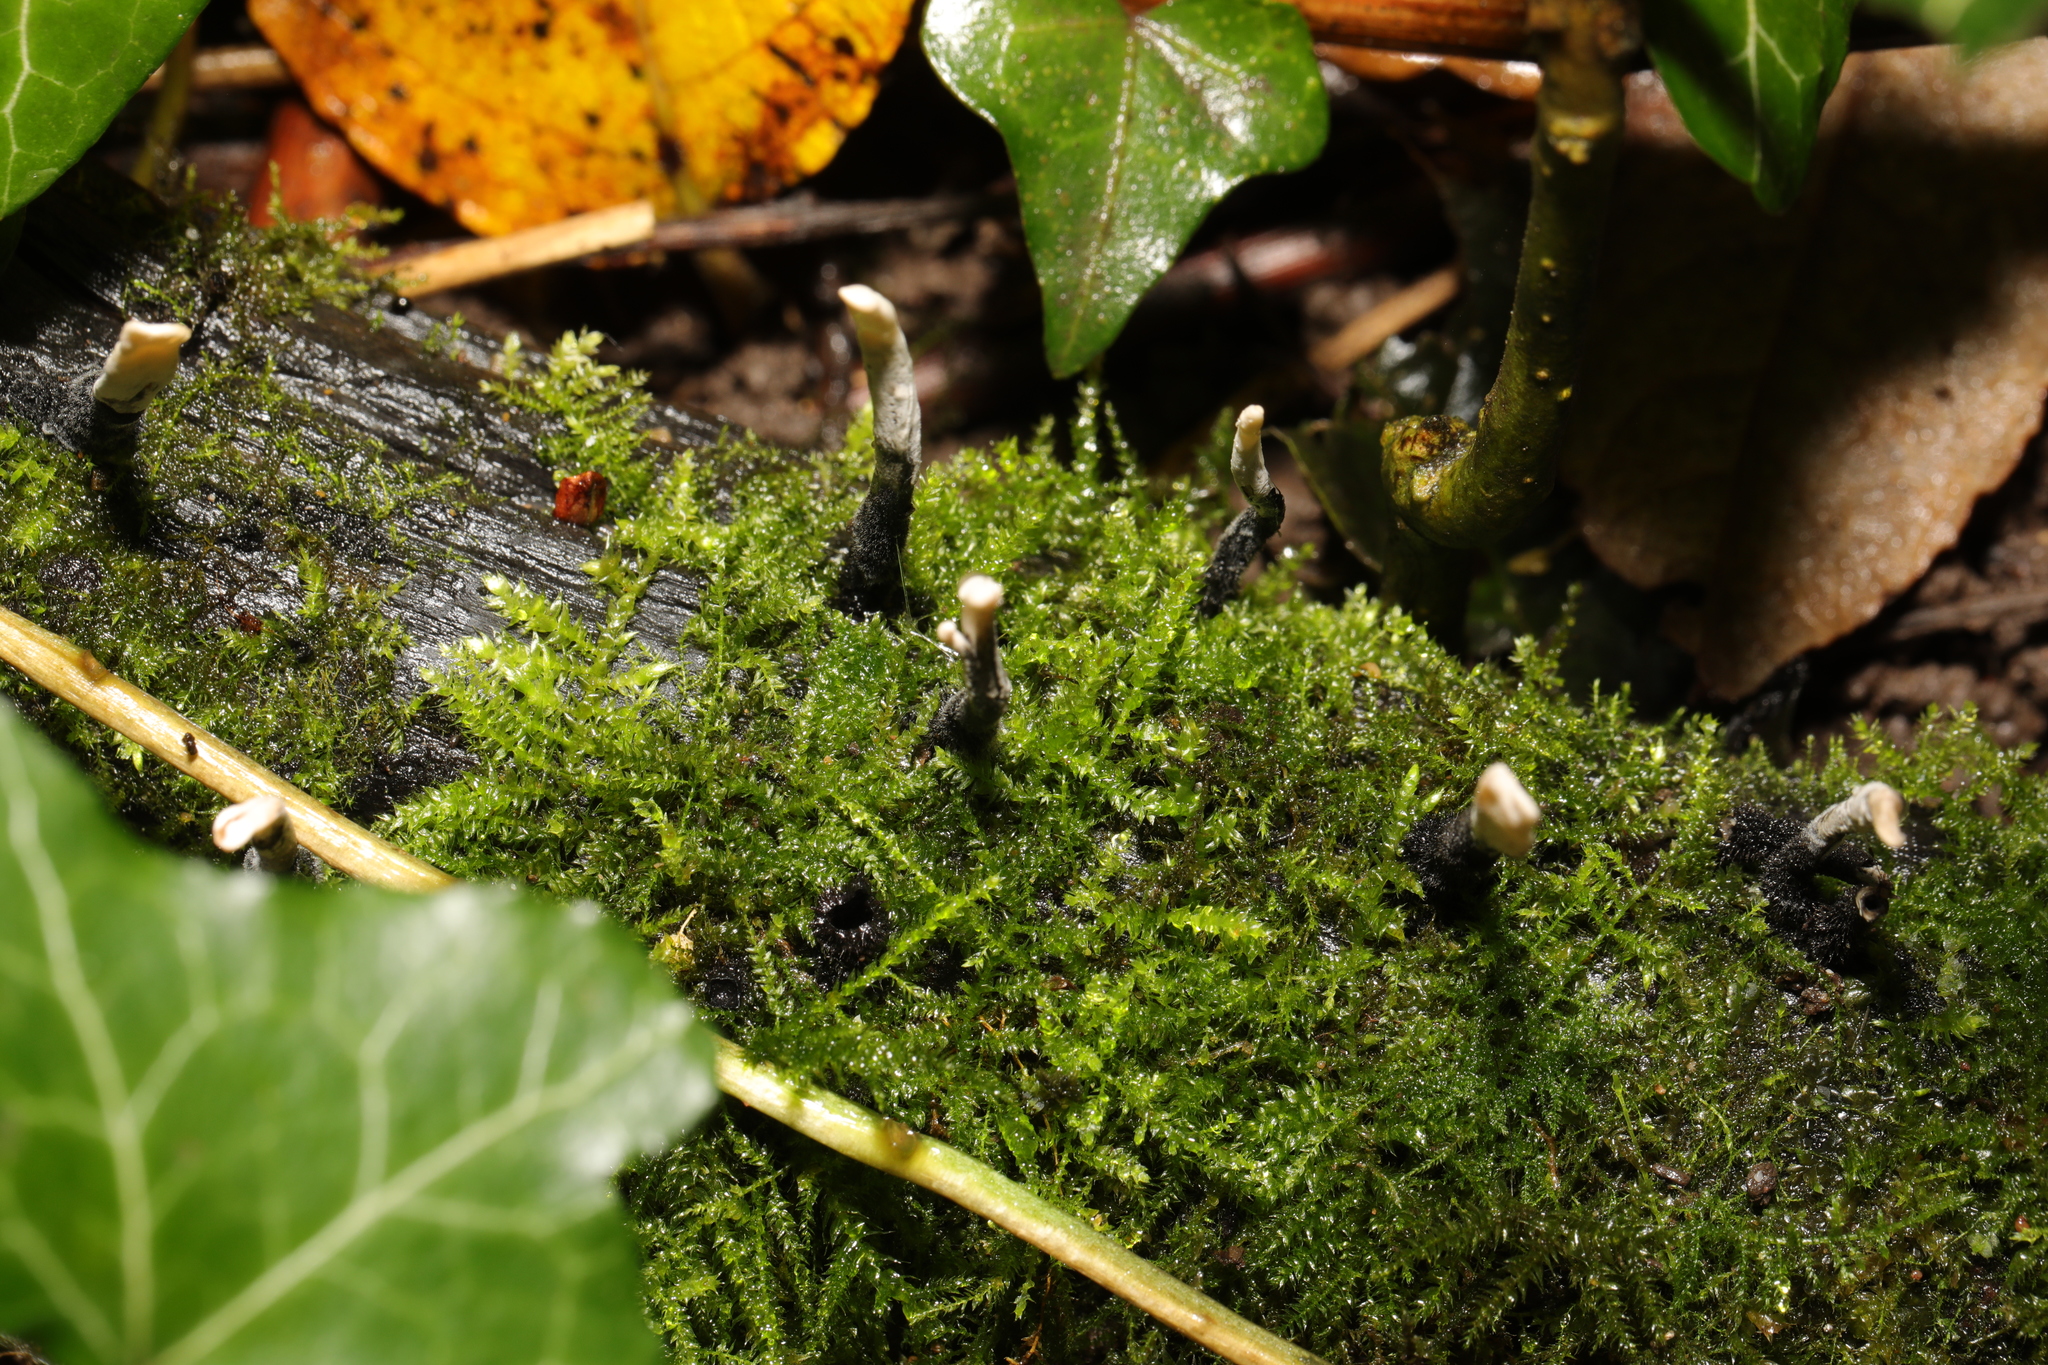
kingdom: Fungi
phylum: Ascomycota
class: Sordariomycetes
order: Xylariales
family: Xylariaceae
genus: Xylaria
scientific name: Xylaria hypoxylon
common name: Candle-snuff fungus
